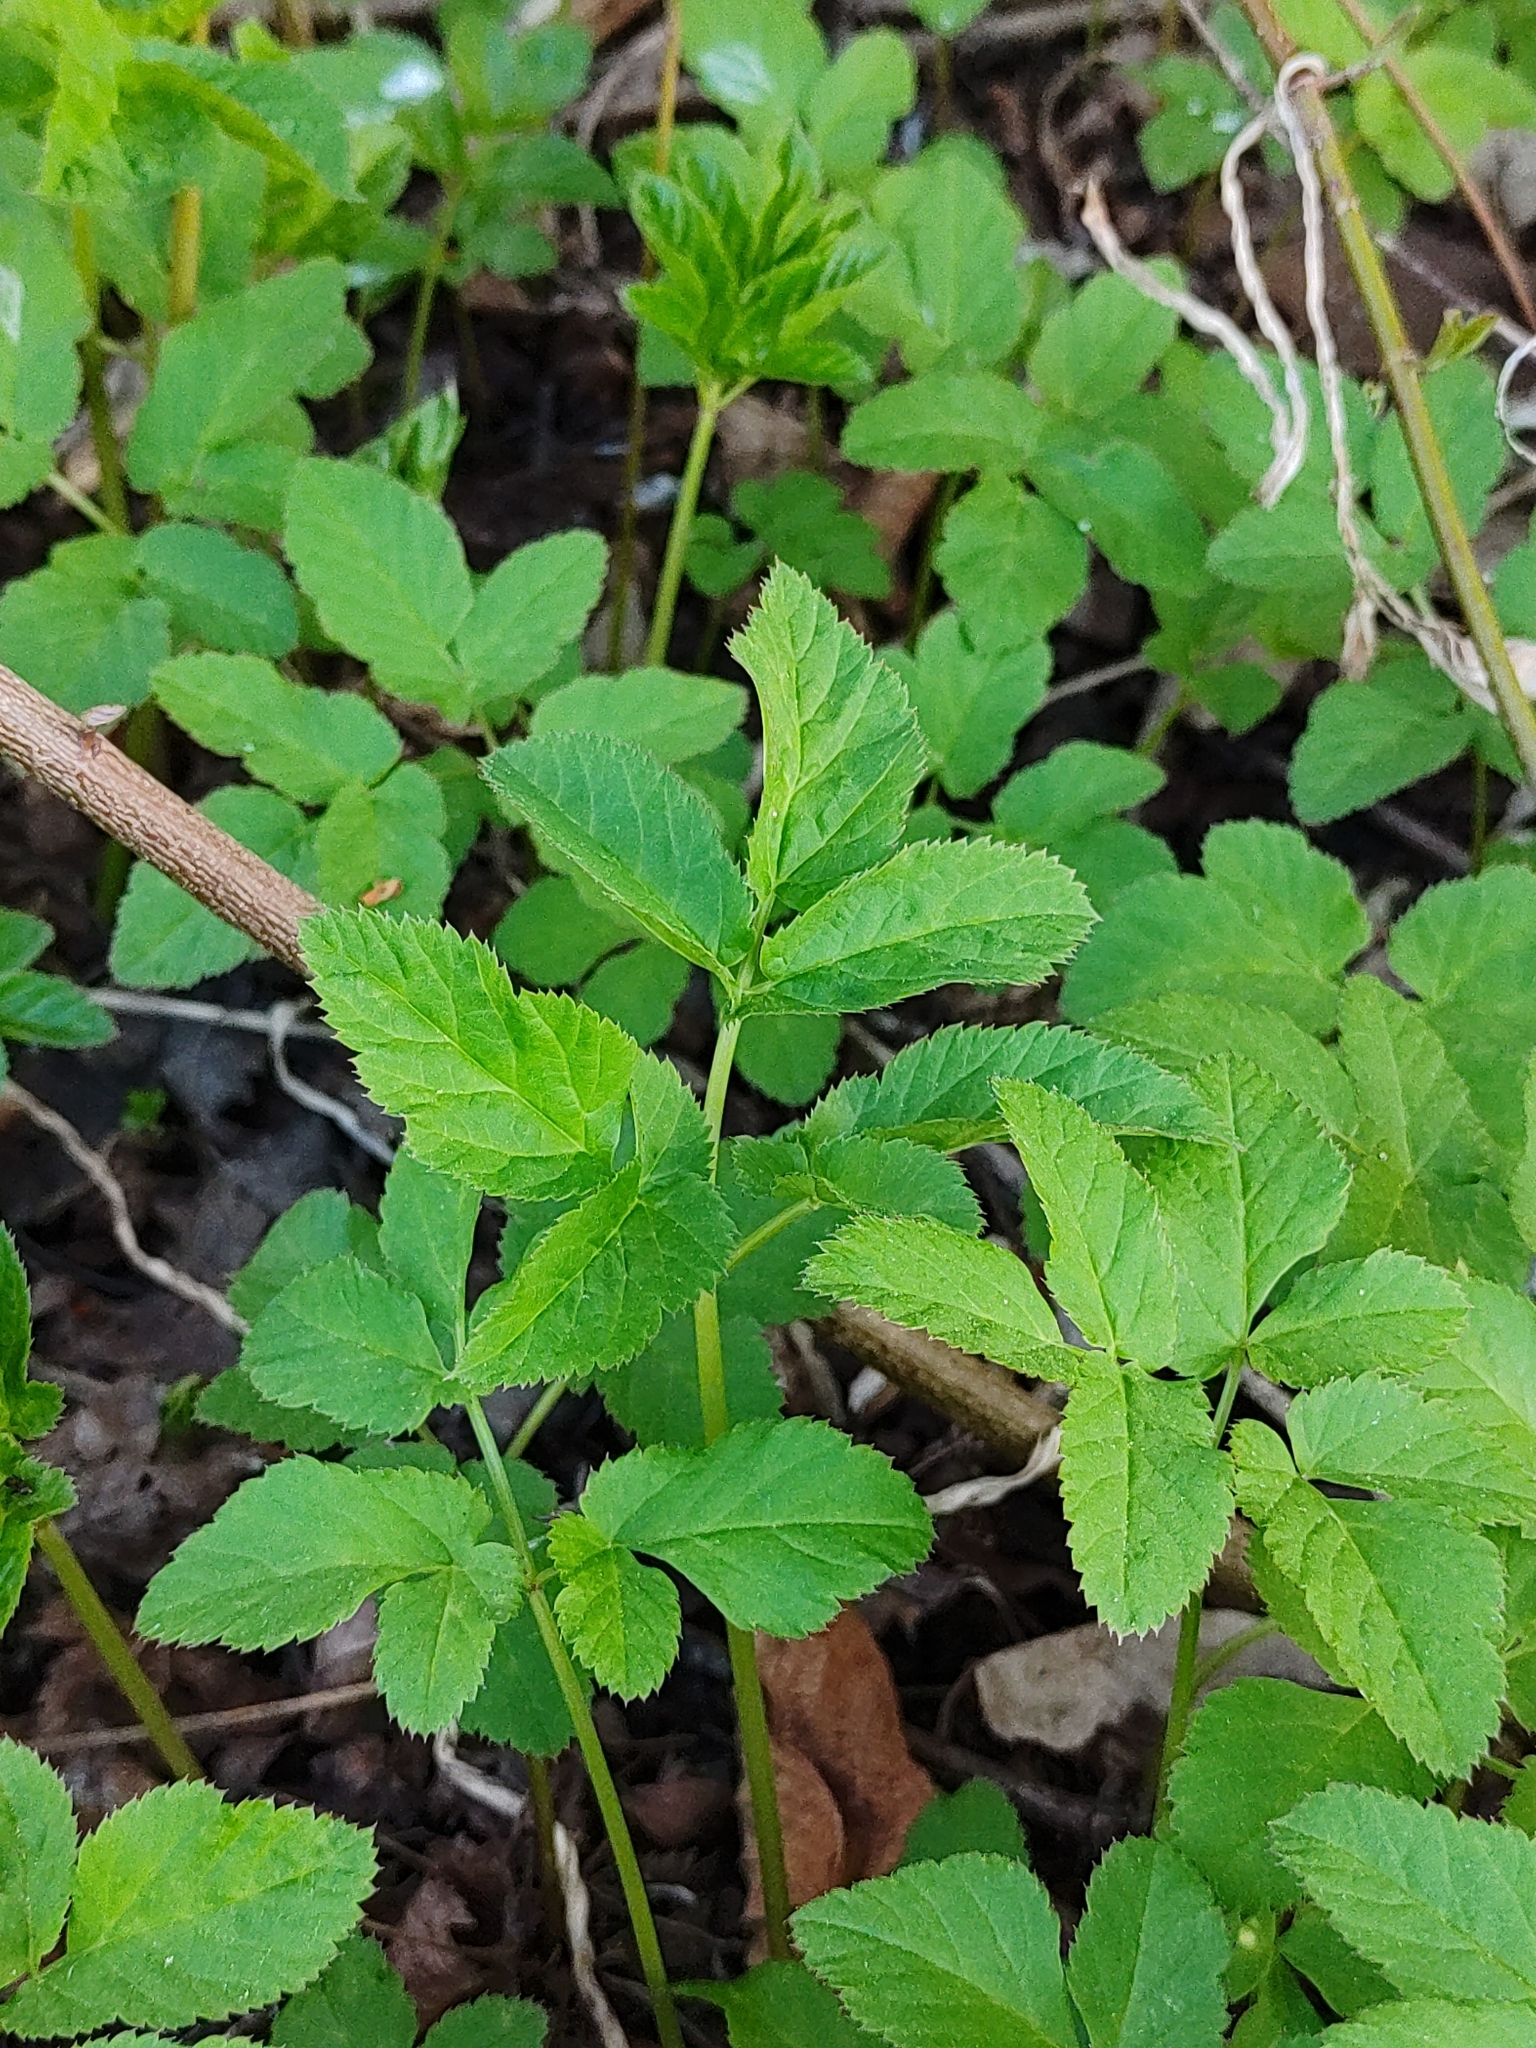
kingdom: Plantae
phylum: Tracheophyta
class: Magnoliopsida
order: Apiales
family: Apiaceae
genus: Aegopodium
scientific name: Aegopodium podagraria
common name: Ground-elder
